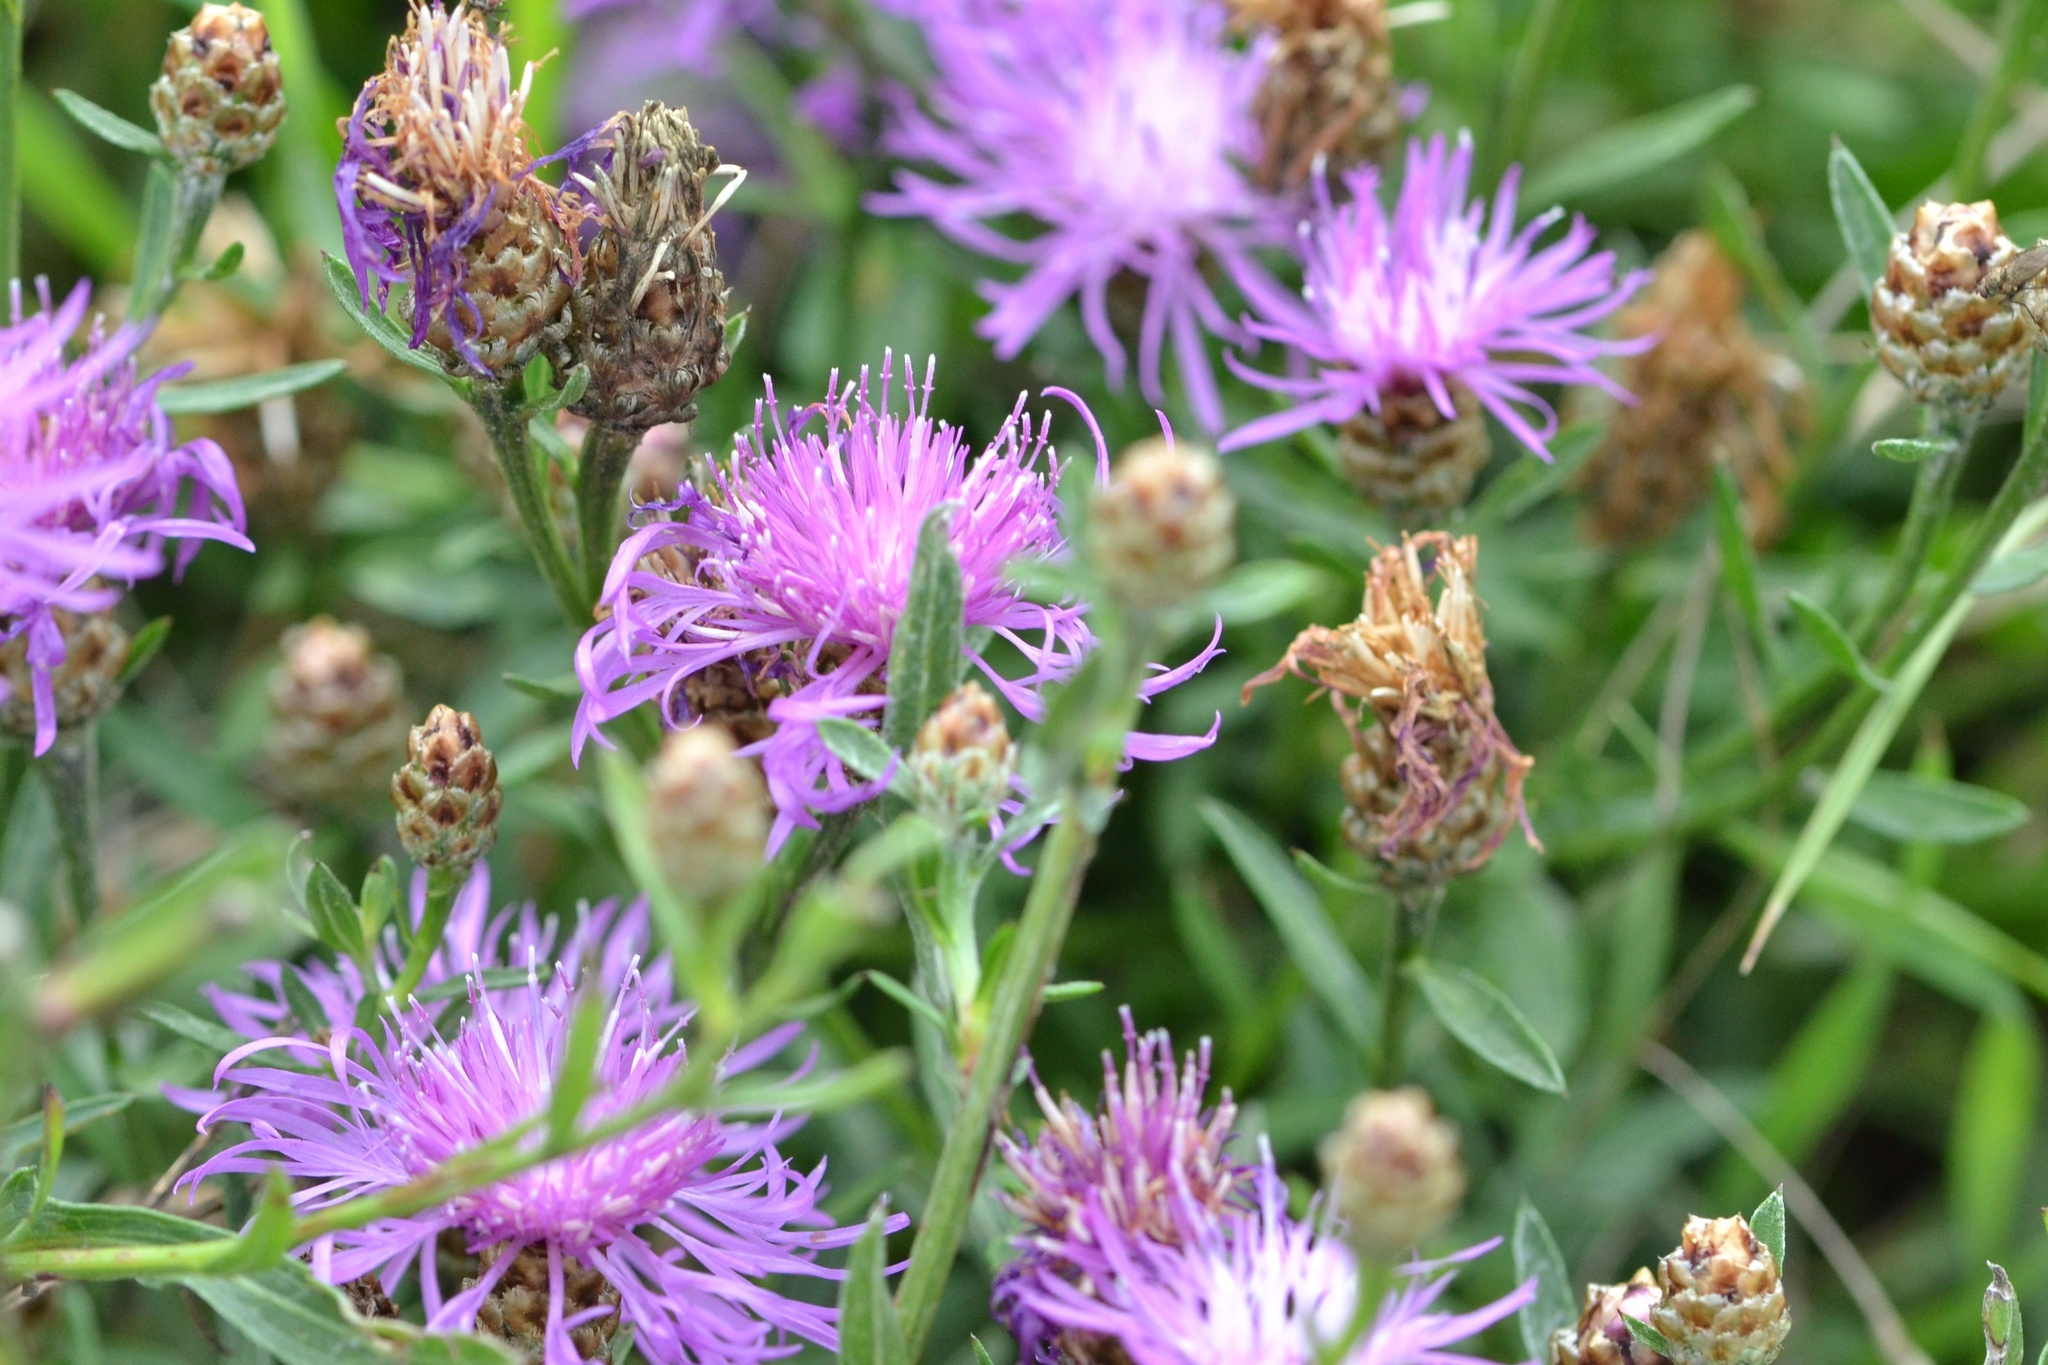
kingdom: Plantae
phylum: Tracheophyta
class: Magnoliopsida
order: Asterales
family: Asteraceae
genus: Centaurea
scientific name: Centaurea jacea
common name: Brown knapweed
